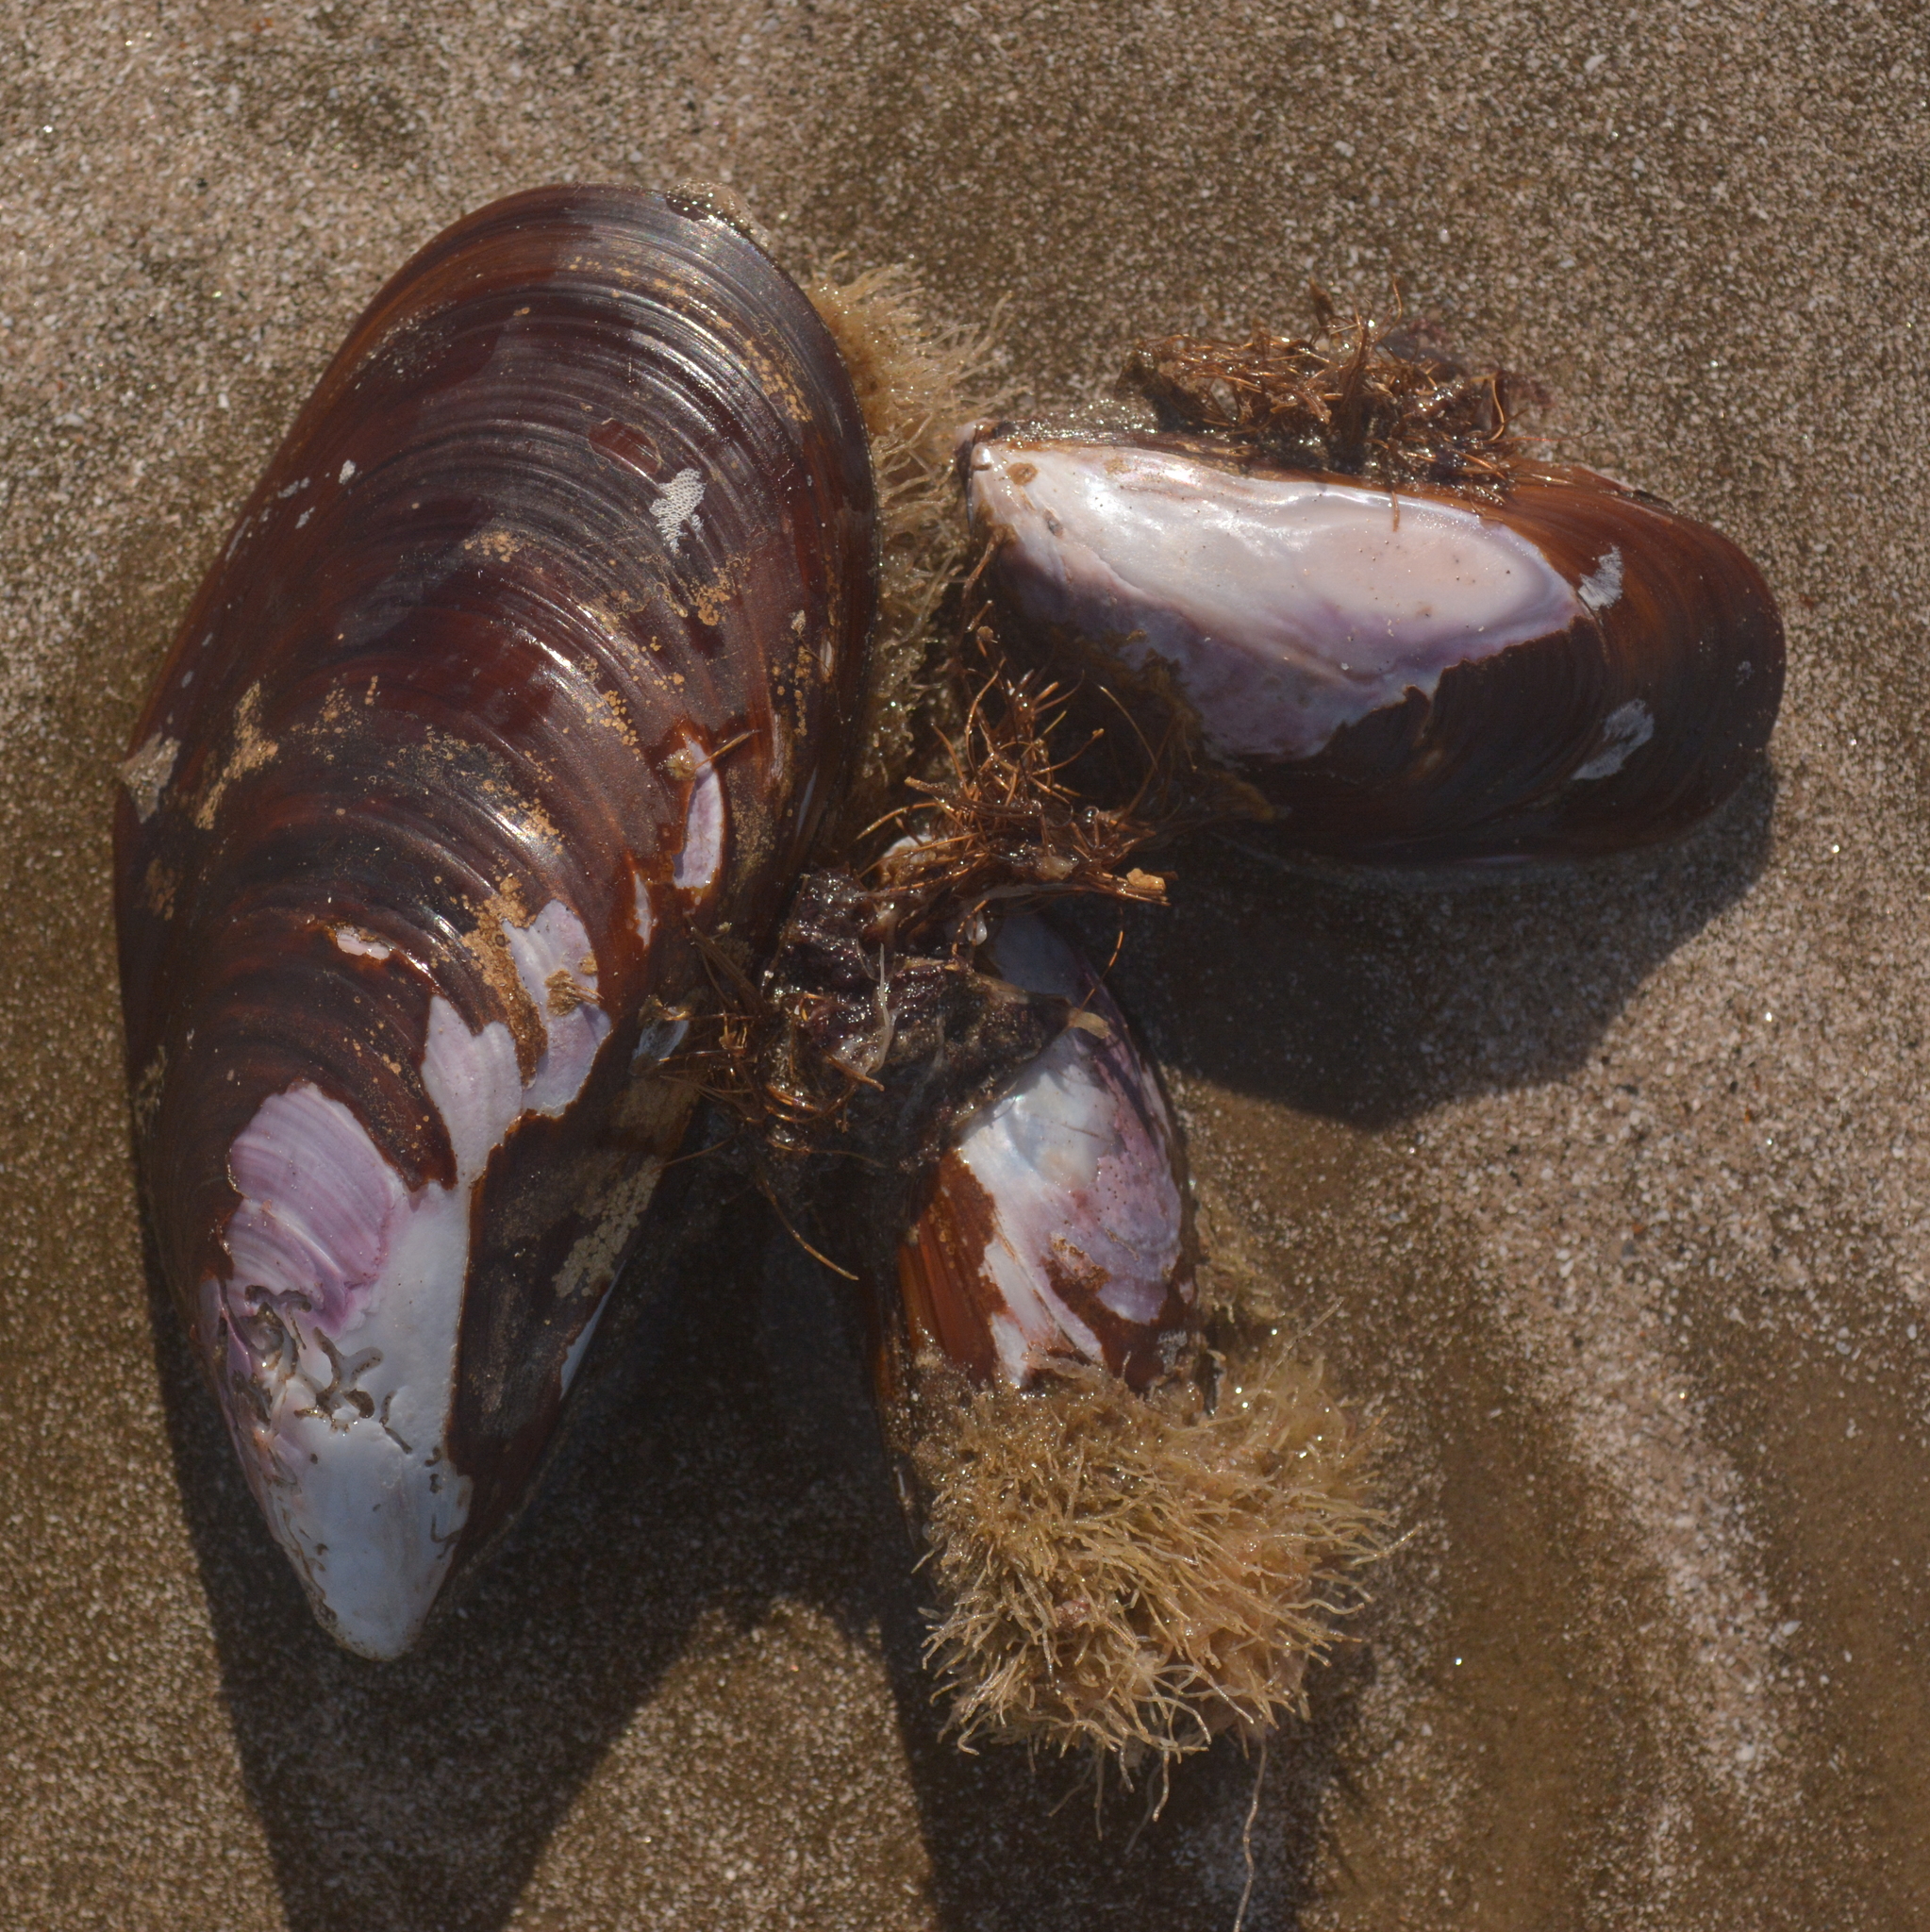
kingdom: Animalia
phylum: Mollusca
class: Bivalvia
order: Mytilida
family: Mytilidae
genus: Perna
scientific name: Perna perna
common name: Mexilhao mussel
